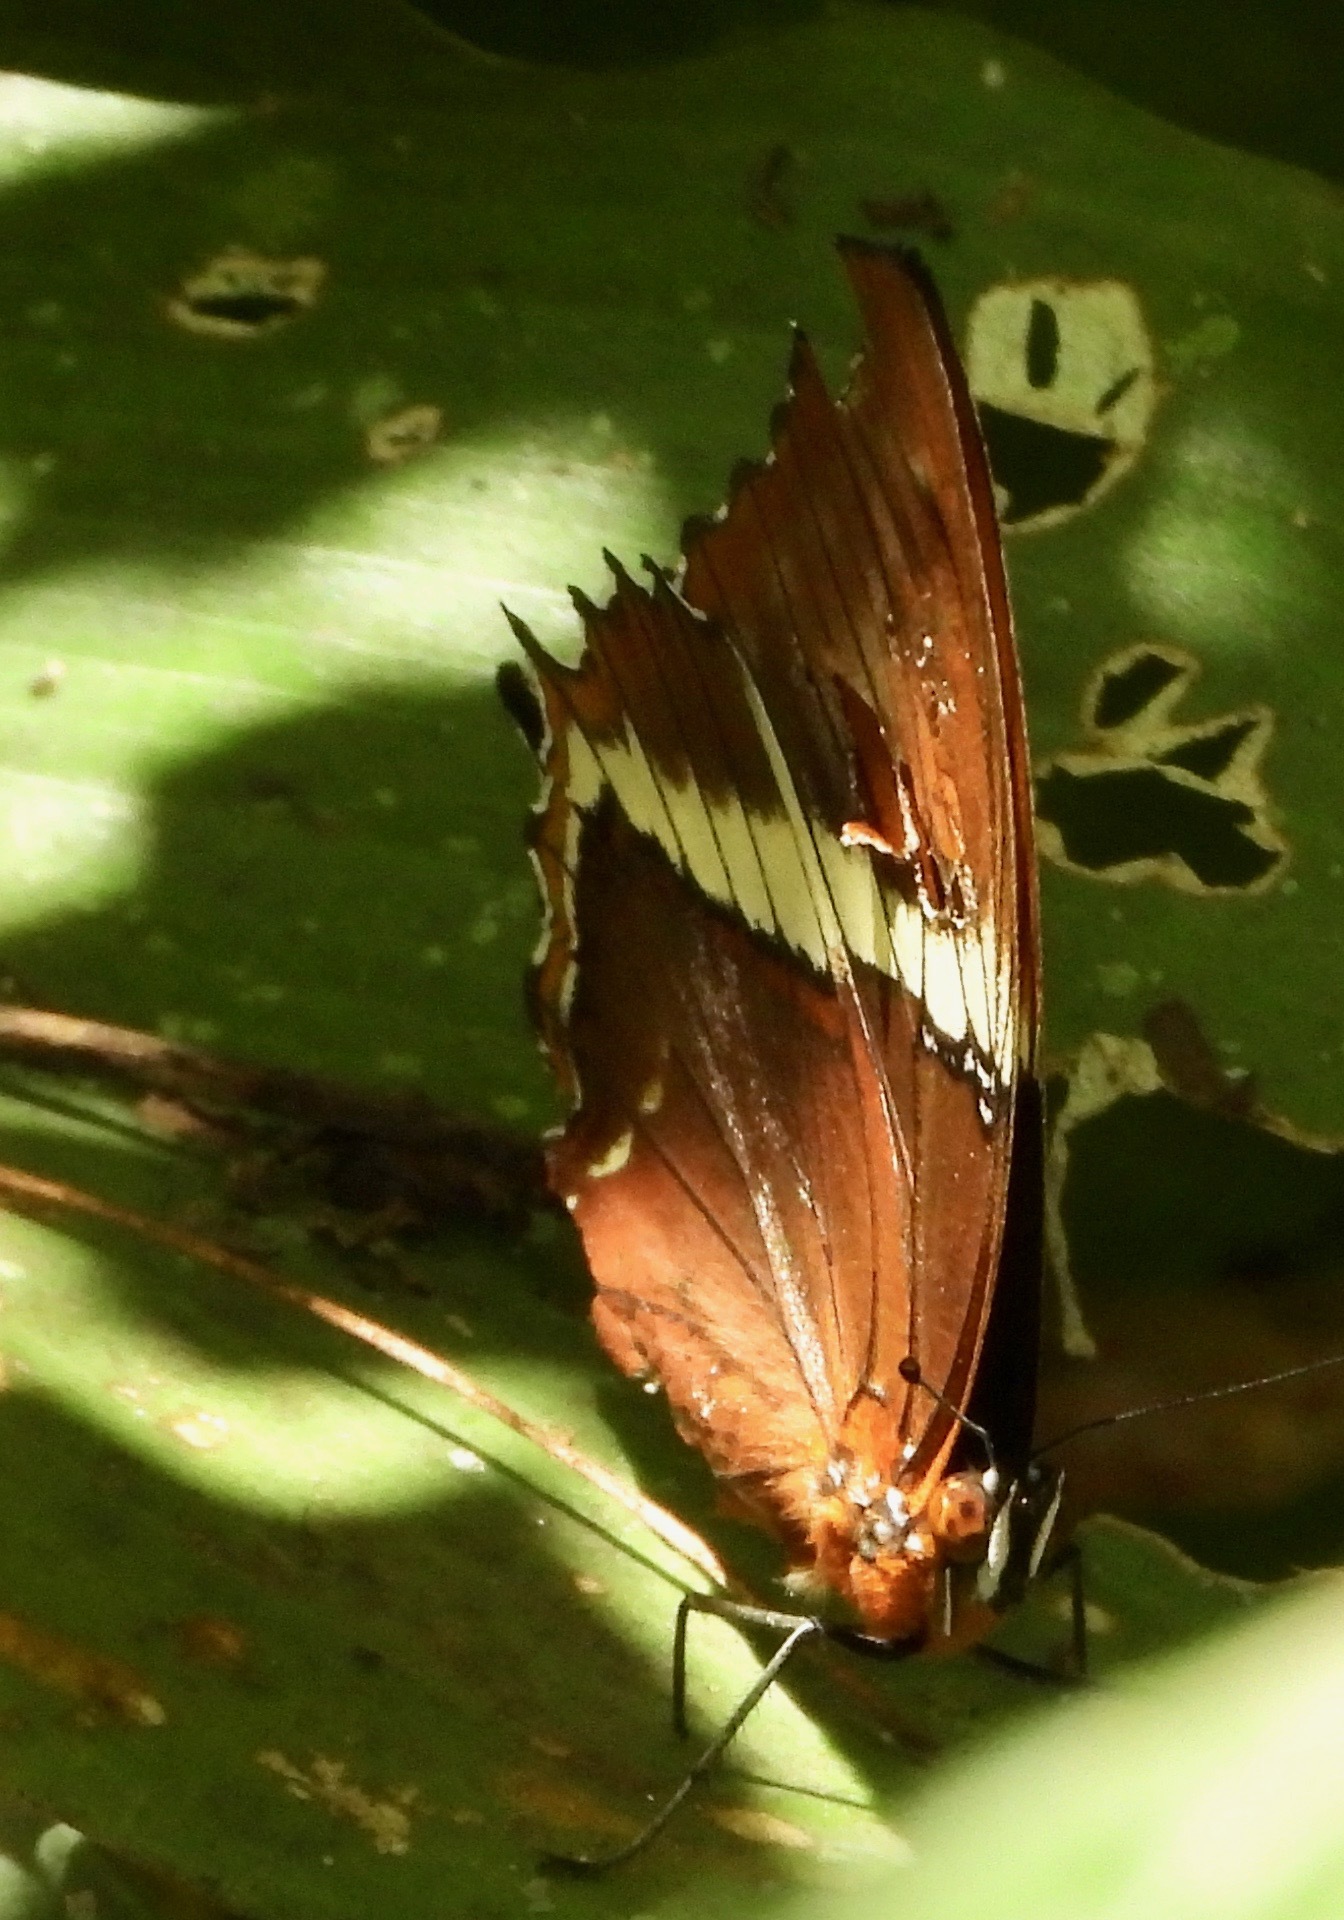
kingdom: Animalia
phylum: Arthropoda
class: Insecta
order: Lepidoptera
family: Nymphalidae
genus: Siproeta
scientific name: Siproeta epaphus
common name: Rusty-tipped page
